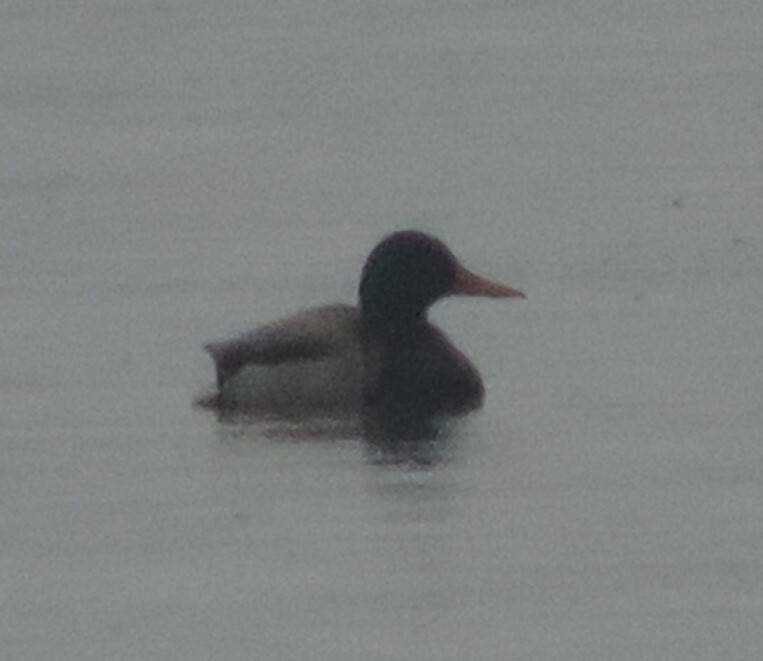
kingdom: Animalia
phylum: Chordata
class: Aves
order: Anseriformes
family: Anatidae
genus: Anas
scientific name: Anas platyrhynchos
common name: Mallard
